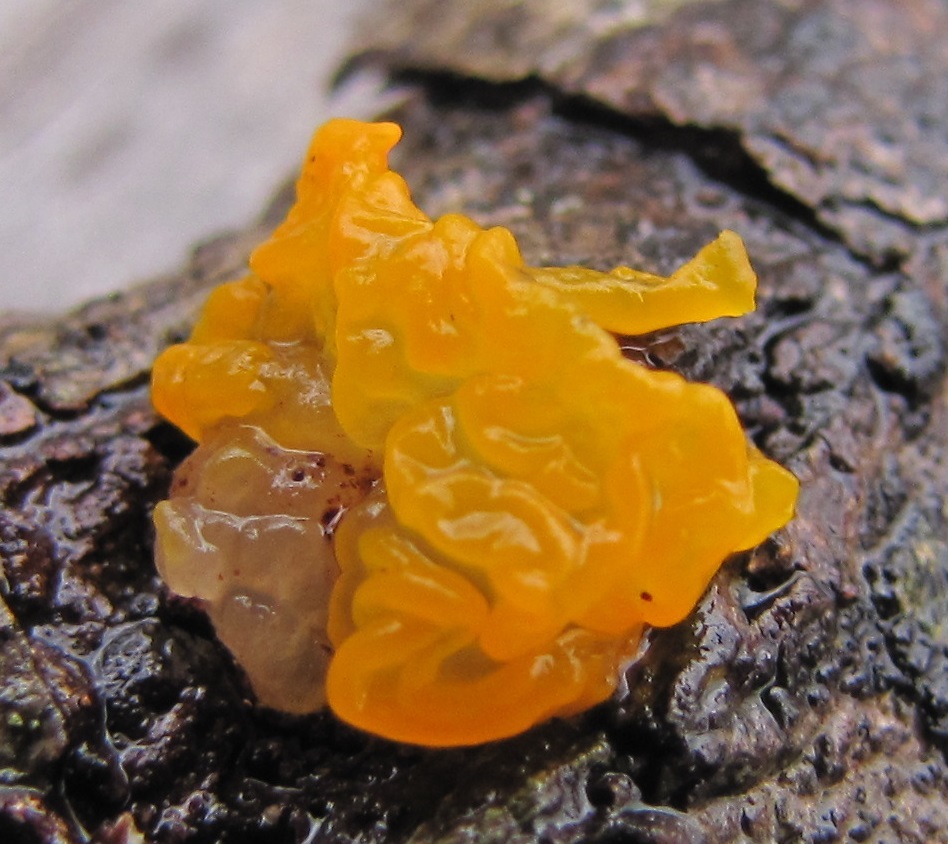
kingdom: Fungi
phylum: Basidiomycota
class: Tremellomycetes
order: Tremellales
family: Tremellaceae
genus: Tremella
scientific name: Tremella mesenterica
